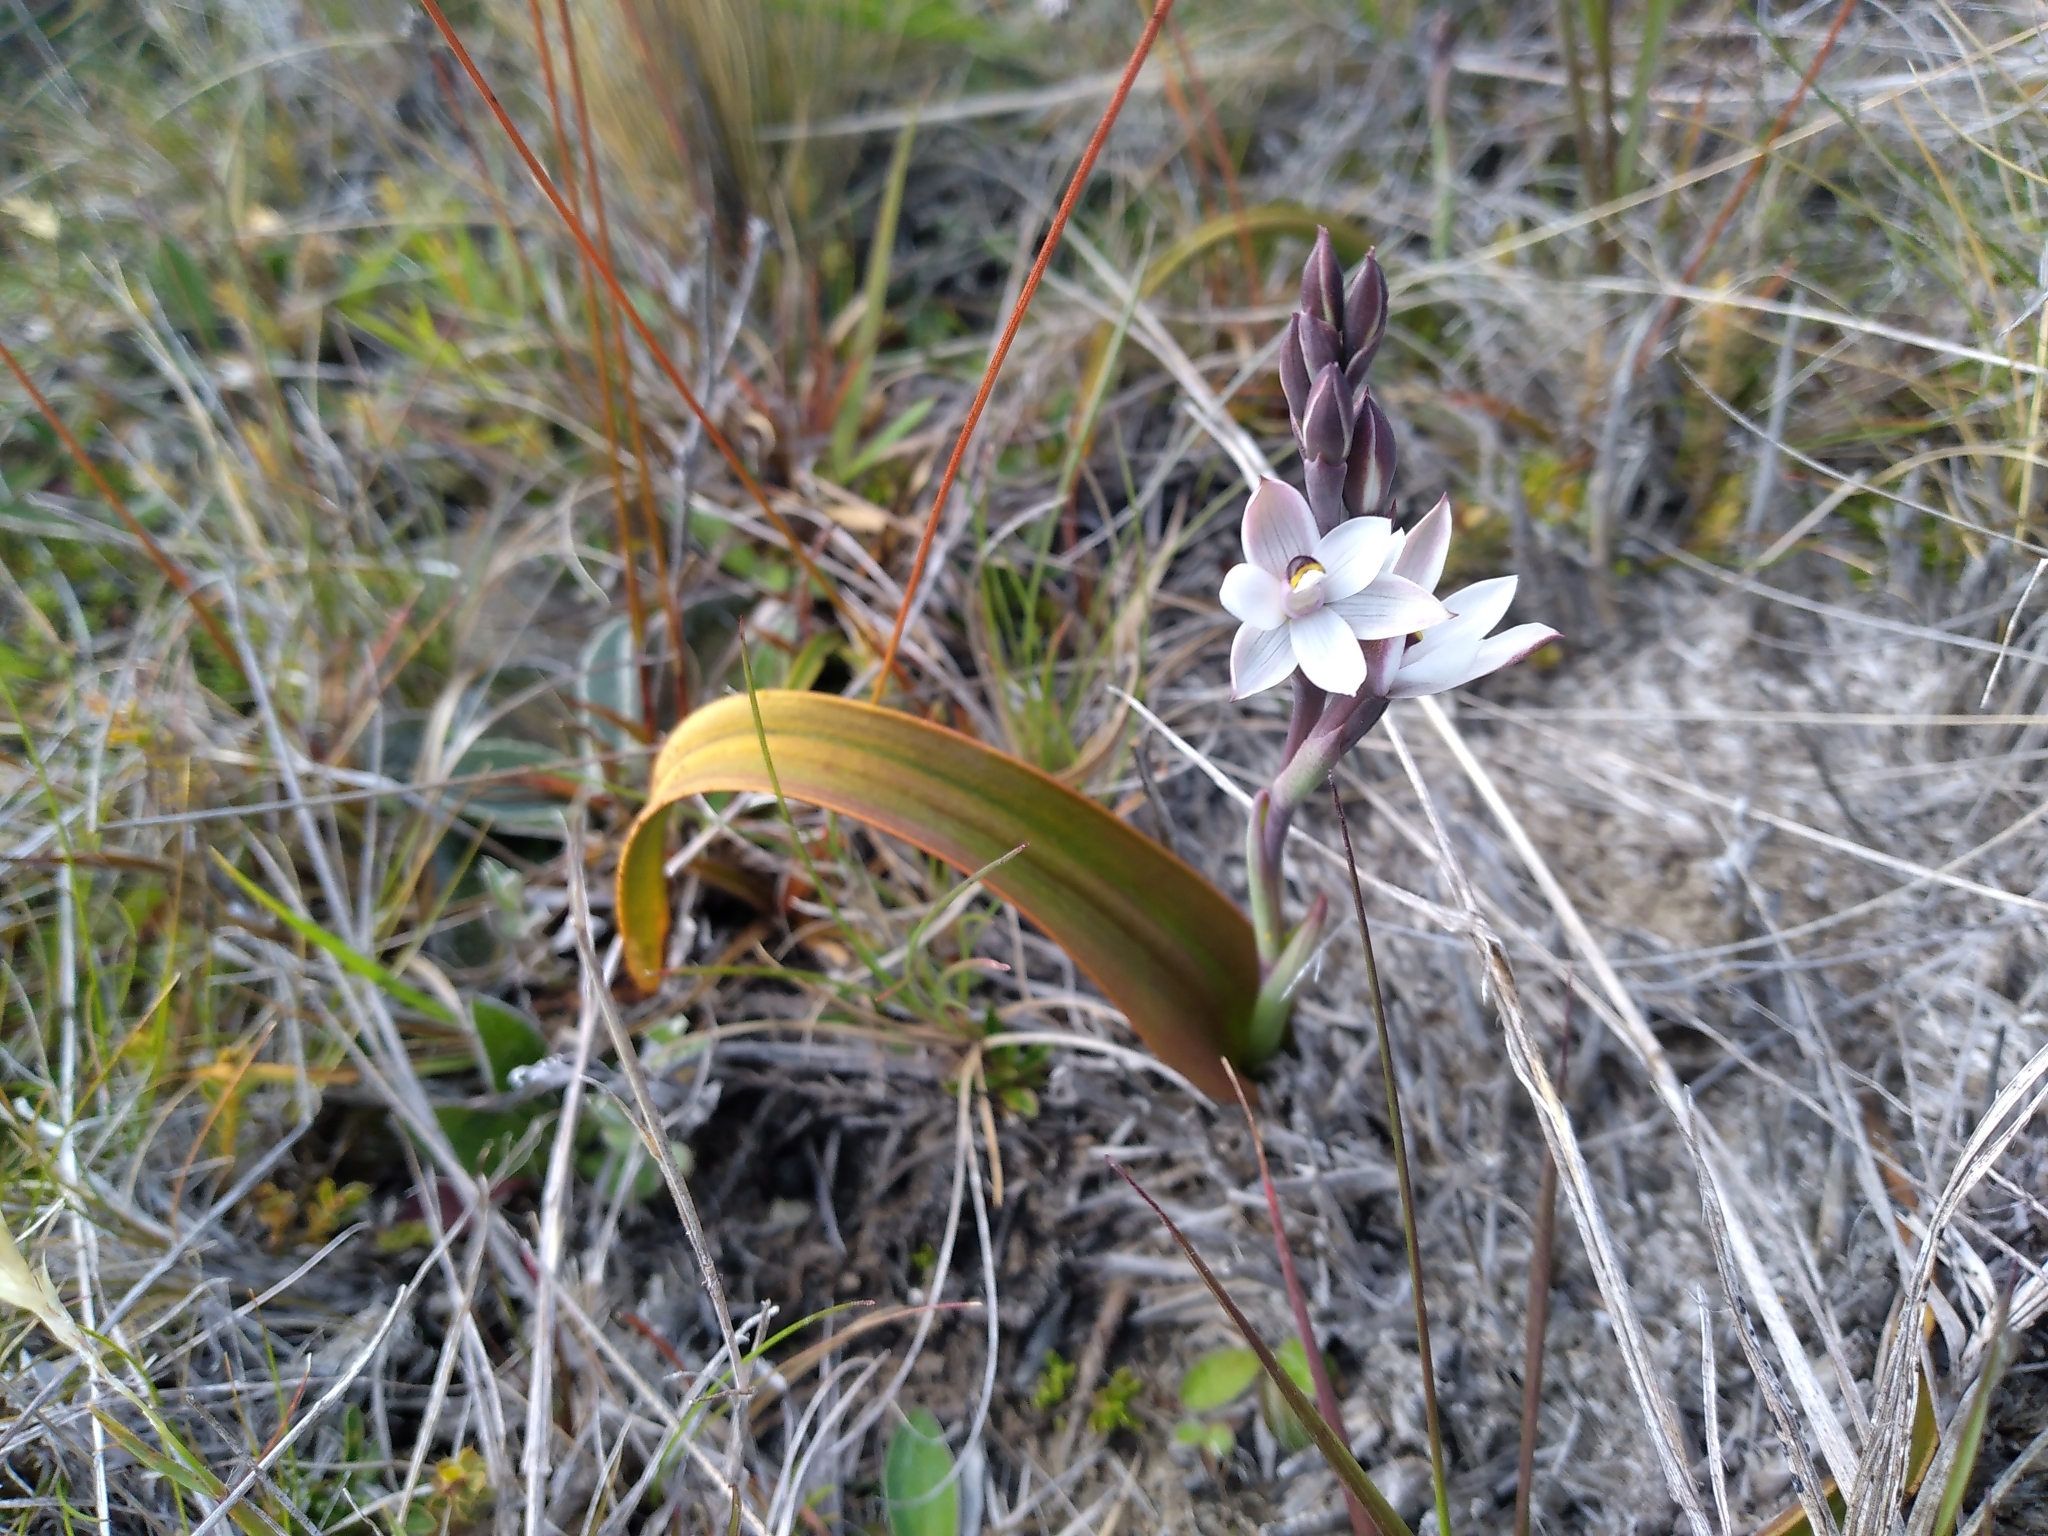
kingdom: Plantae
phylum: Tracheophyta
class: Liliopsida
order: Asparagales
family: Orchidaceae
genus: Thelymitra
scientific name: Thelymitra longifolia
